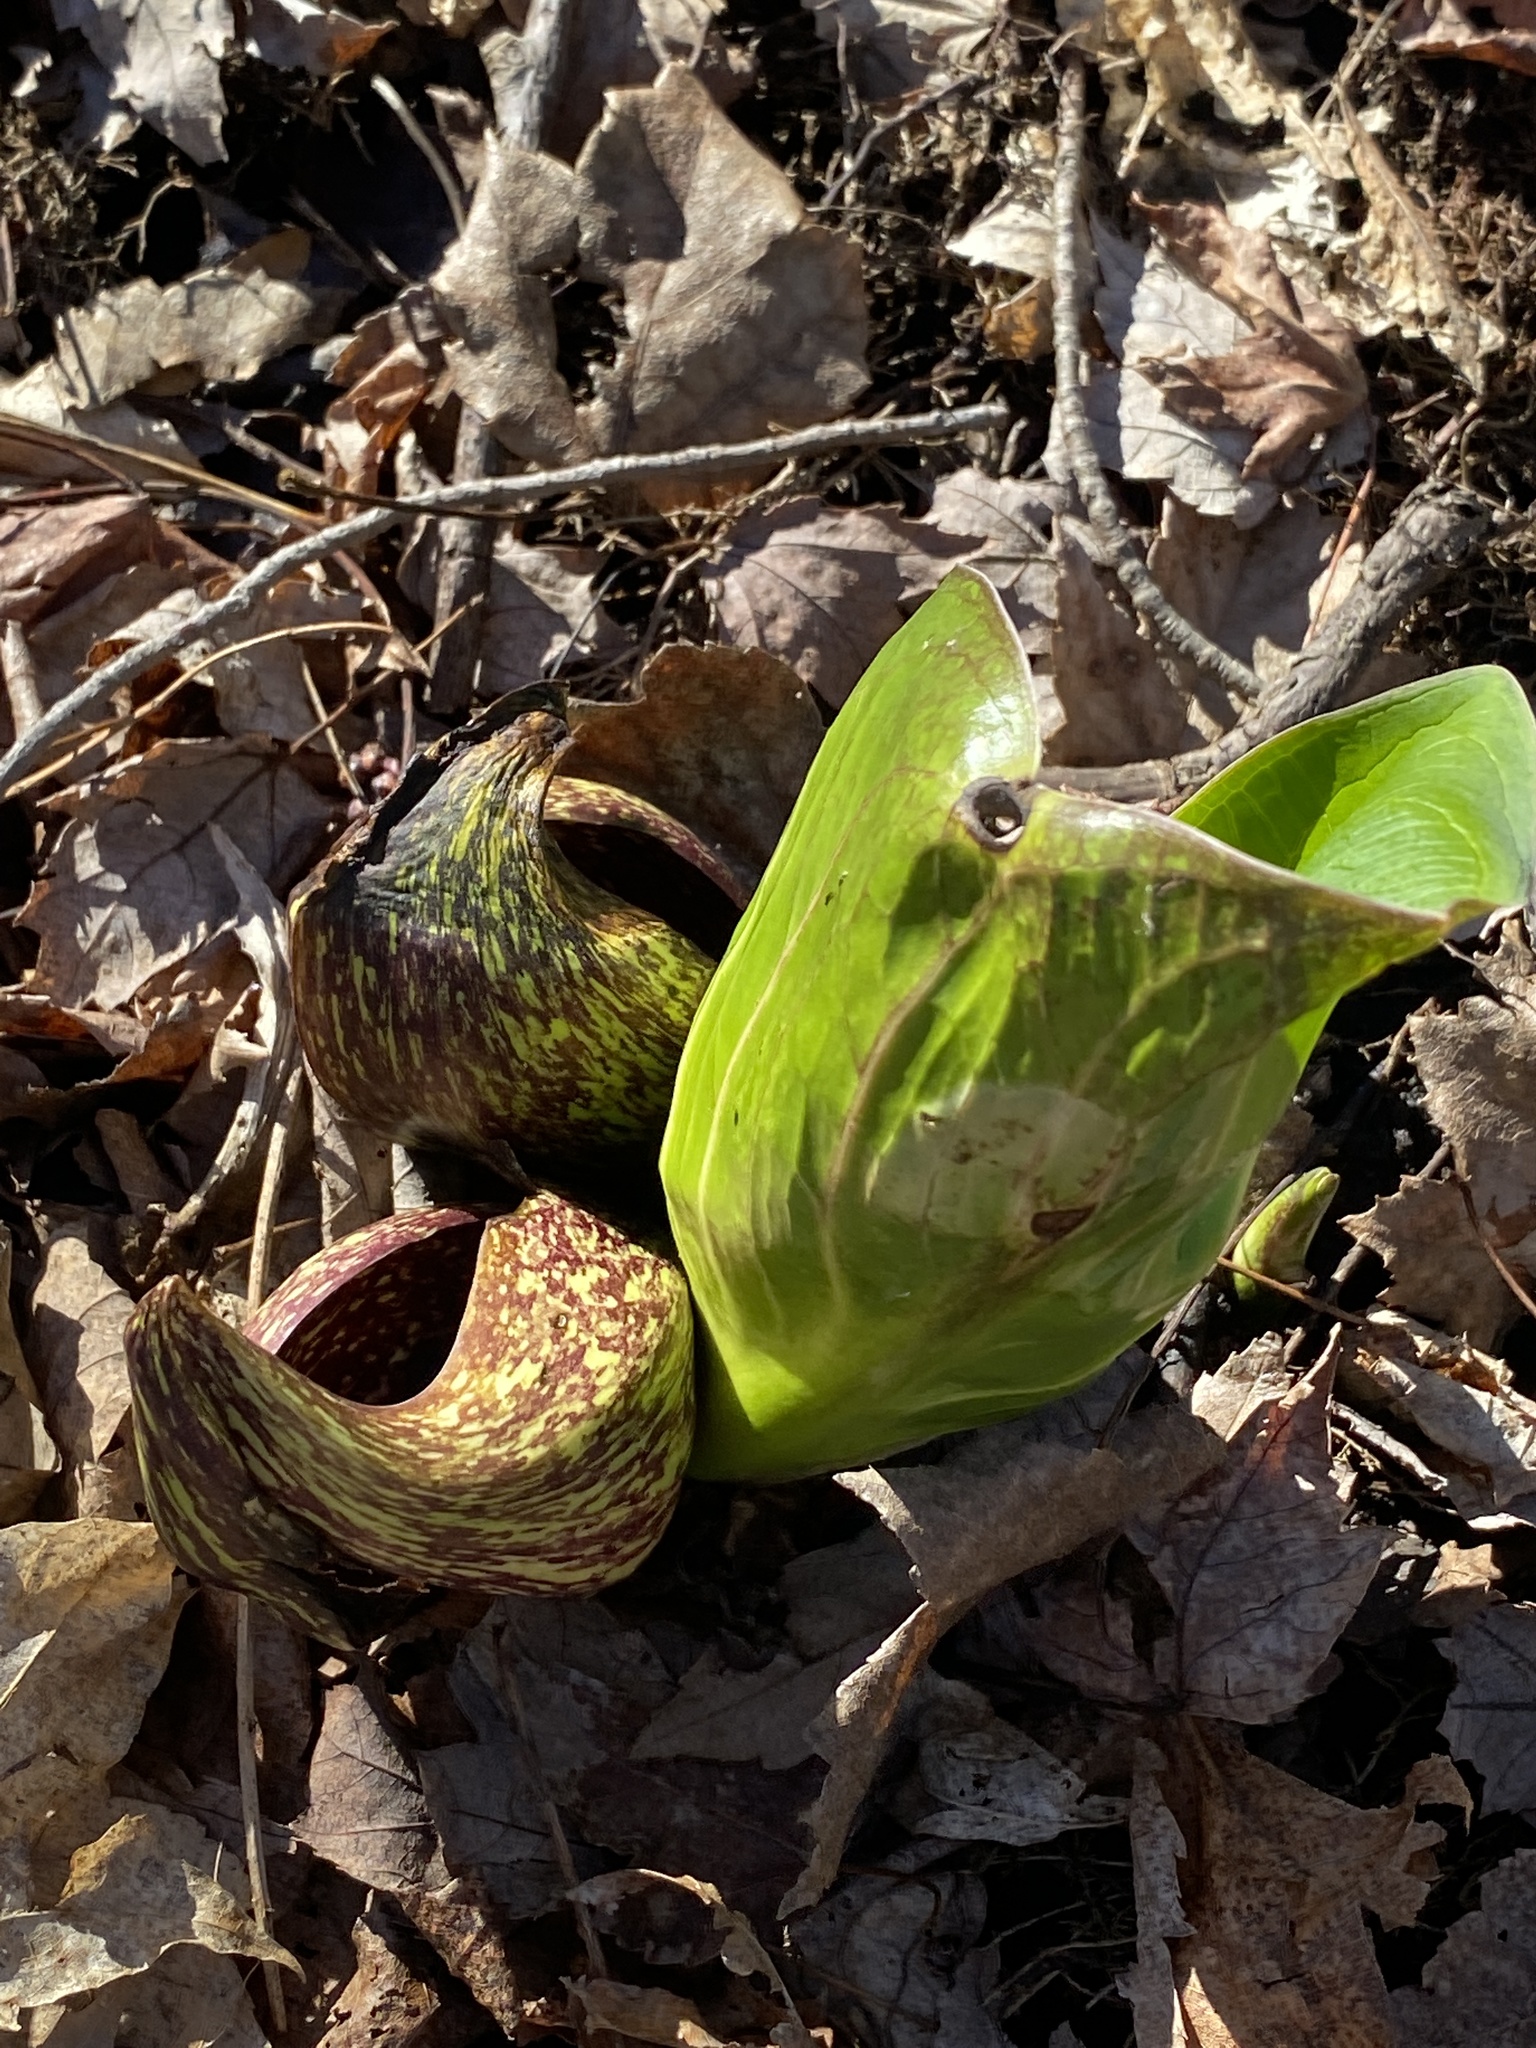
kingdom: Plantae
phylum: Tracheophyta
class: Liliopsida
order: Alismatales
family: Araceae
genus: Symplocarpus
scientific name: Symplocarpus foetidus
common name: Eastern skunk cabbage
